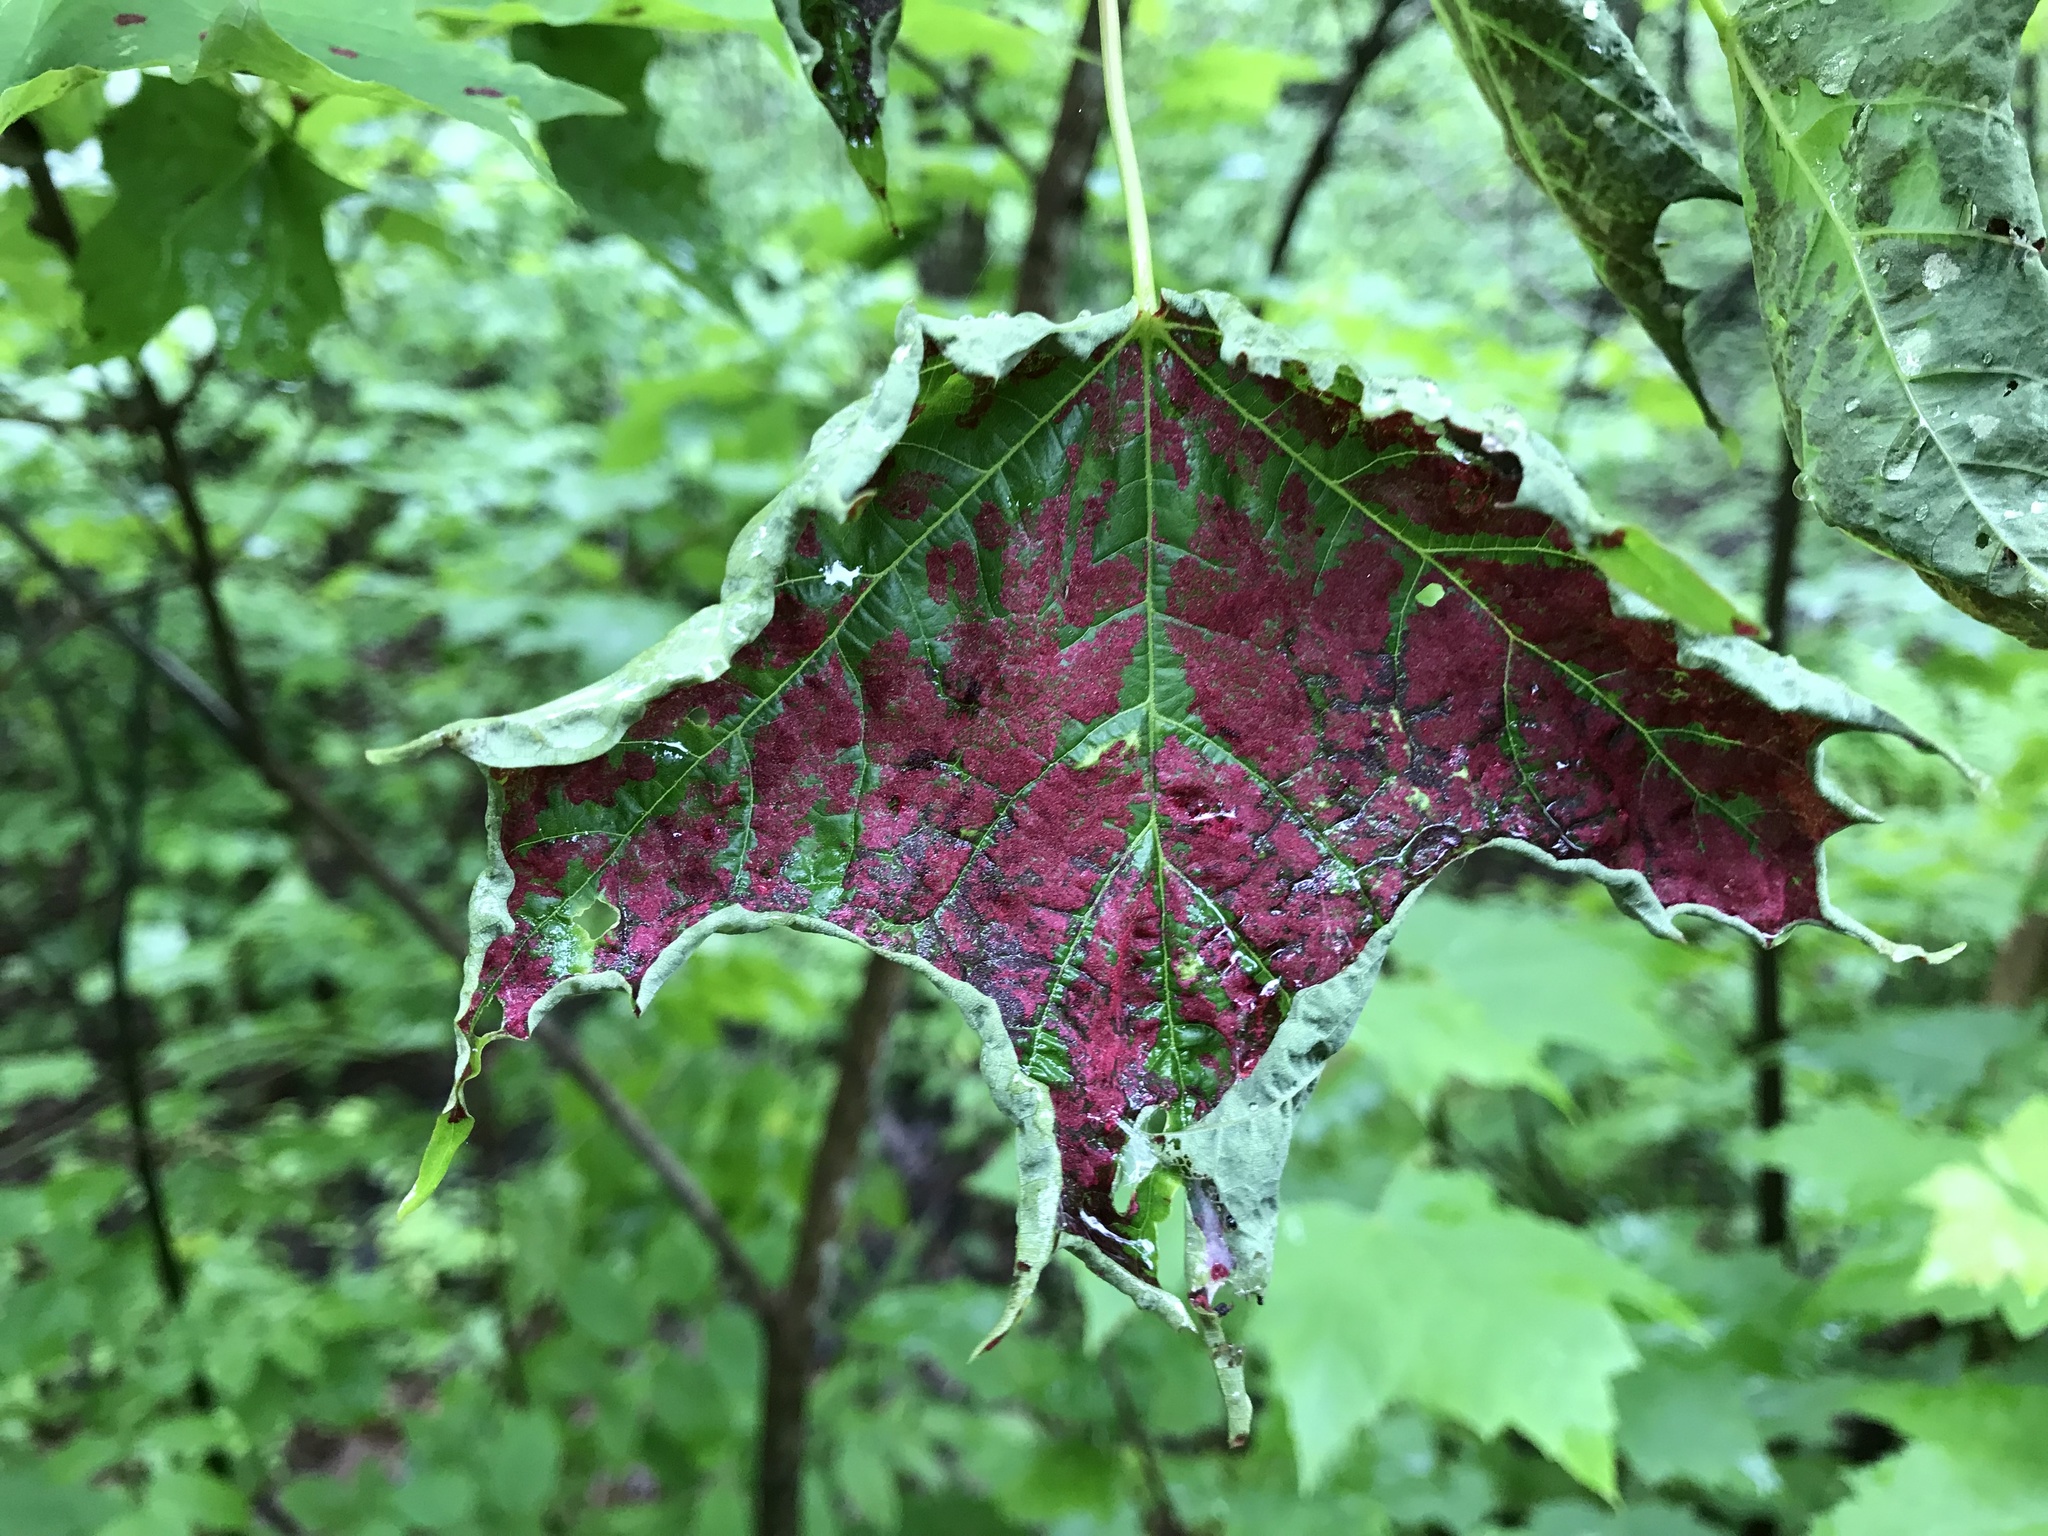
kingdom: Animalia
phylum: Arthropoda
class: Arachnida
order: Trombidiformes
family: Eriophyidae
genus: Aceria
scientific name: Aceria
